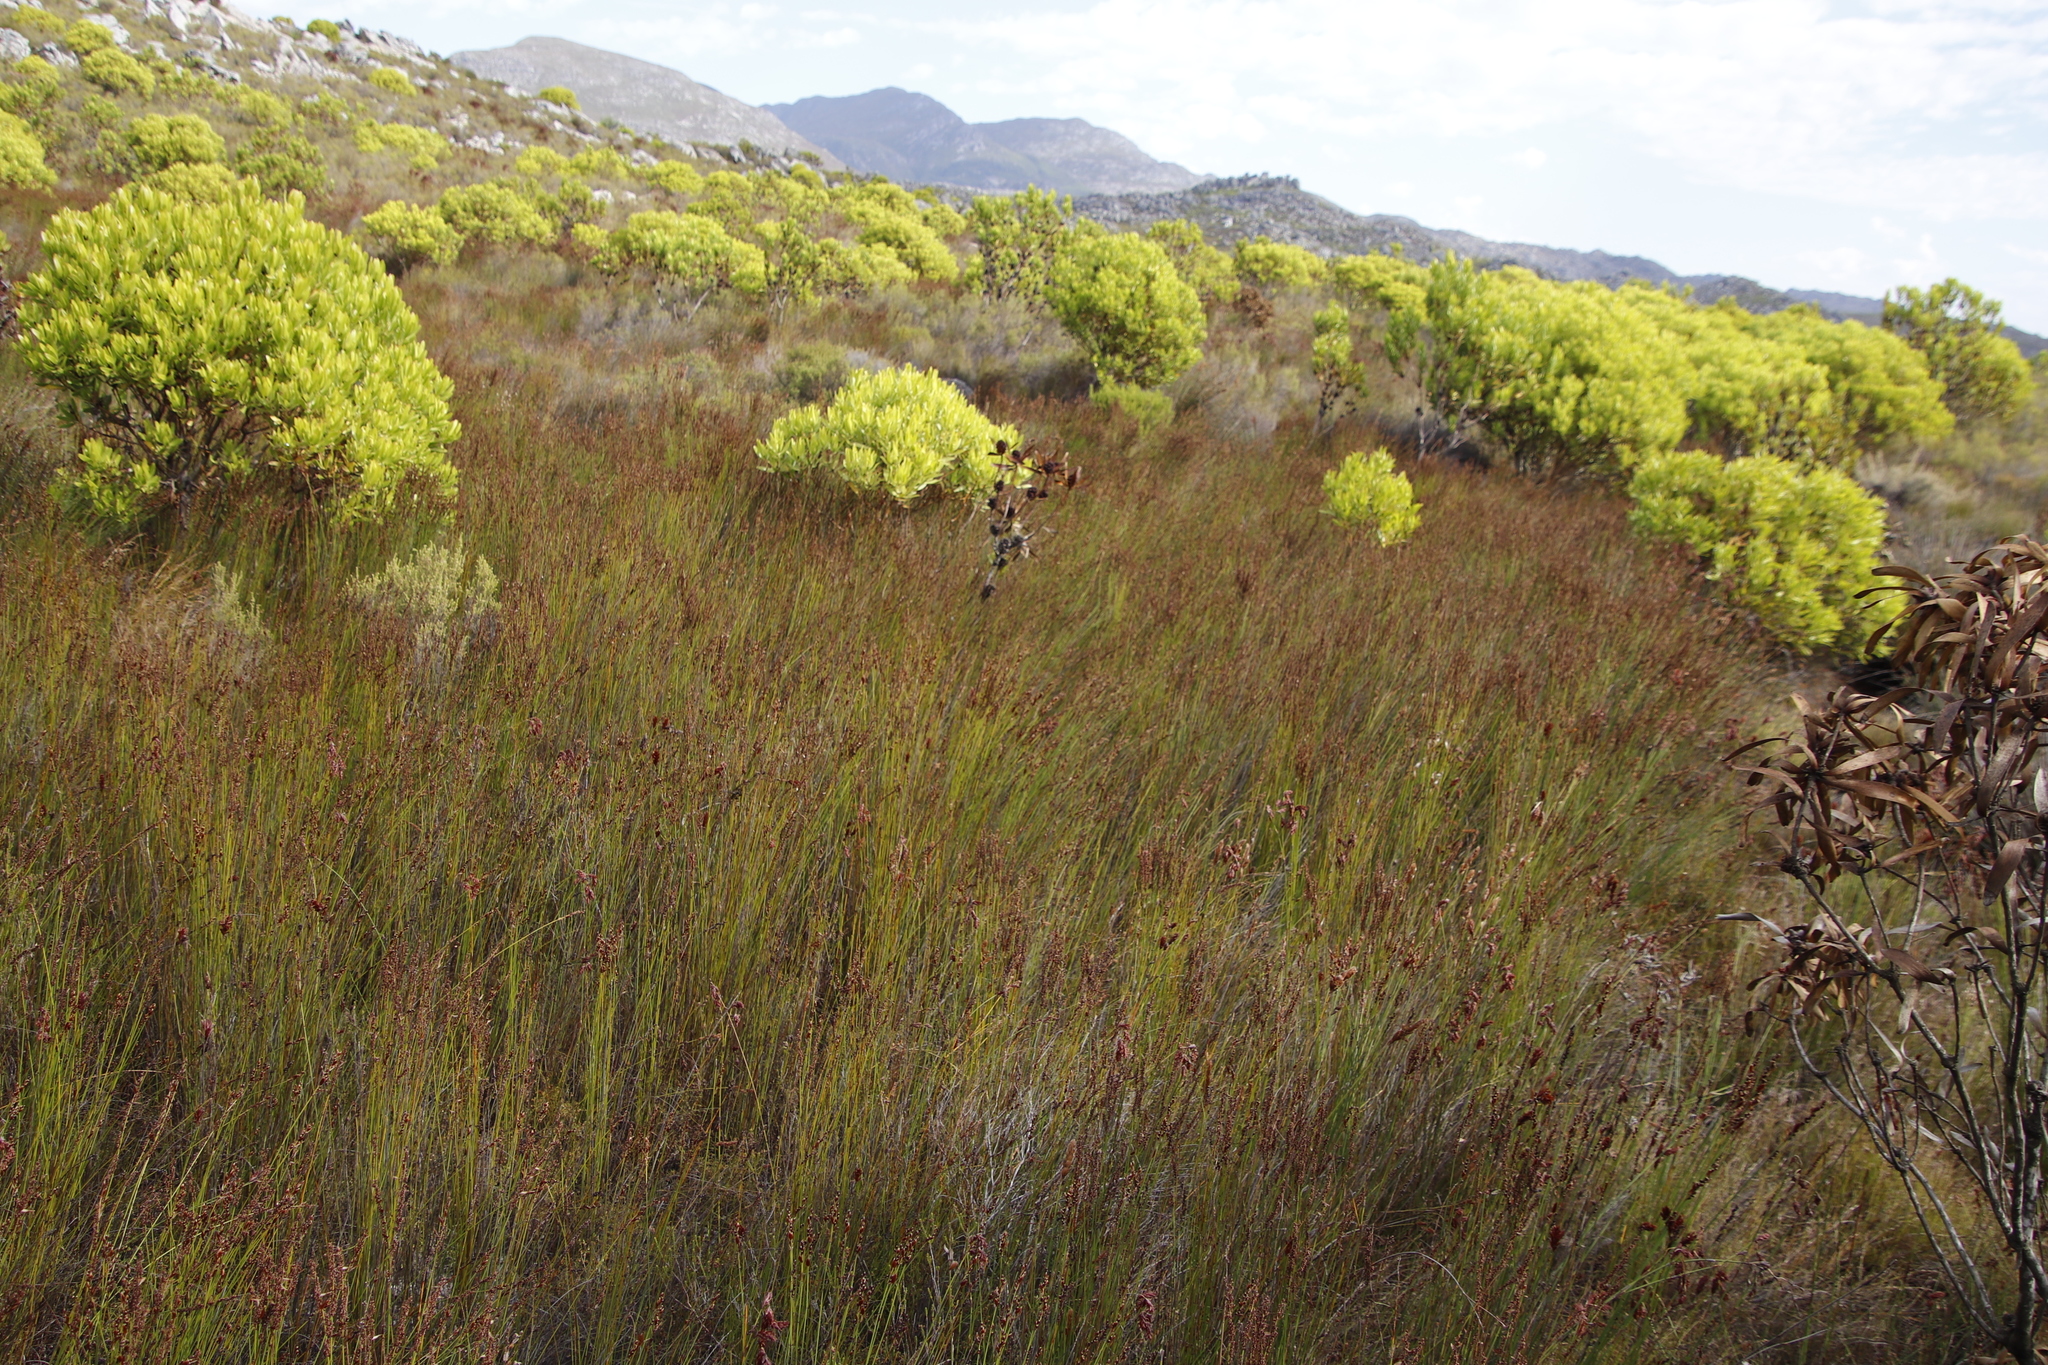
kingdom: Plantae
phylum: Tracheophyta
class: Liliopsida
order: Poales
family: Restionaceae
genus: Elegia
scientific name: Elegia hookeriana
